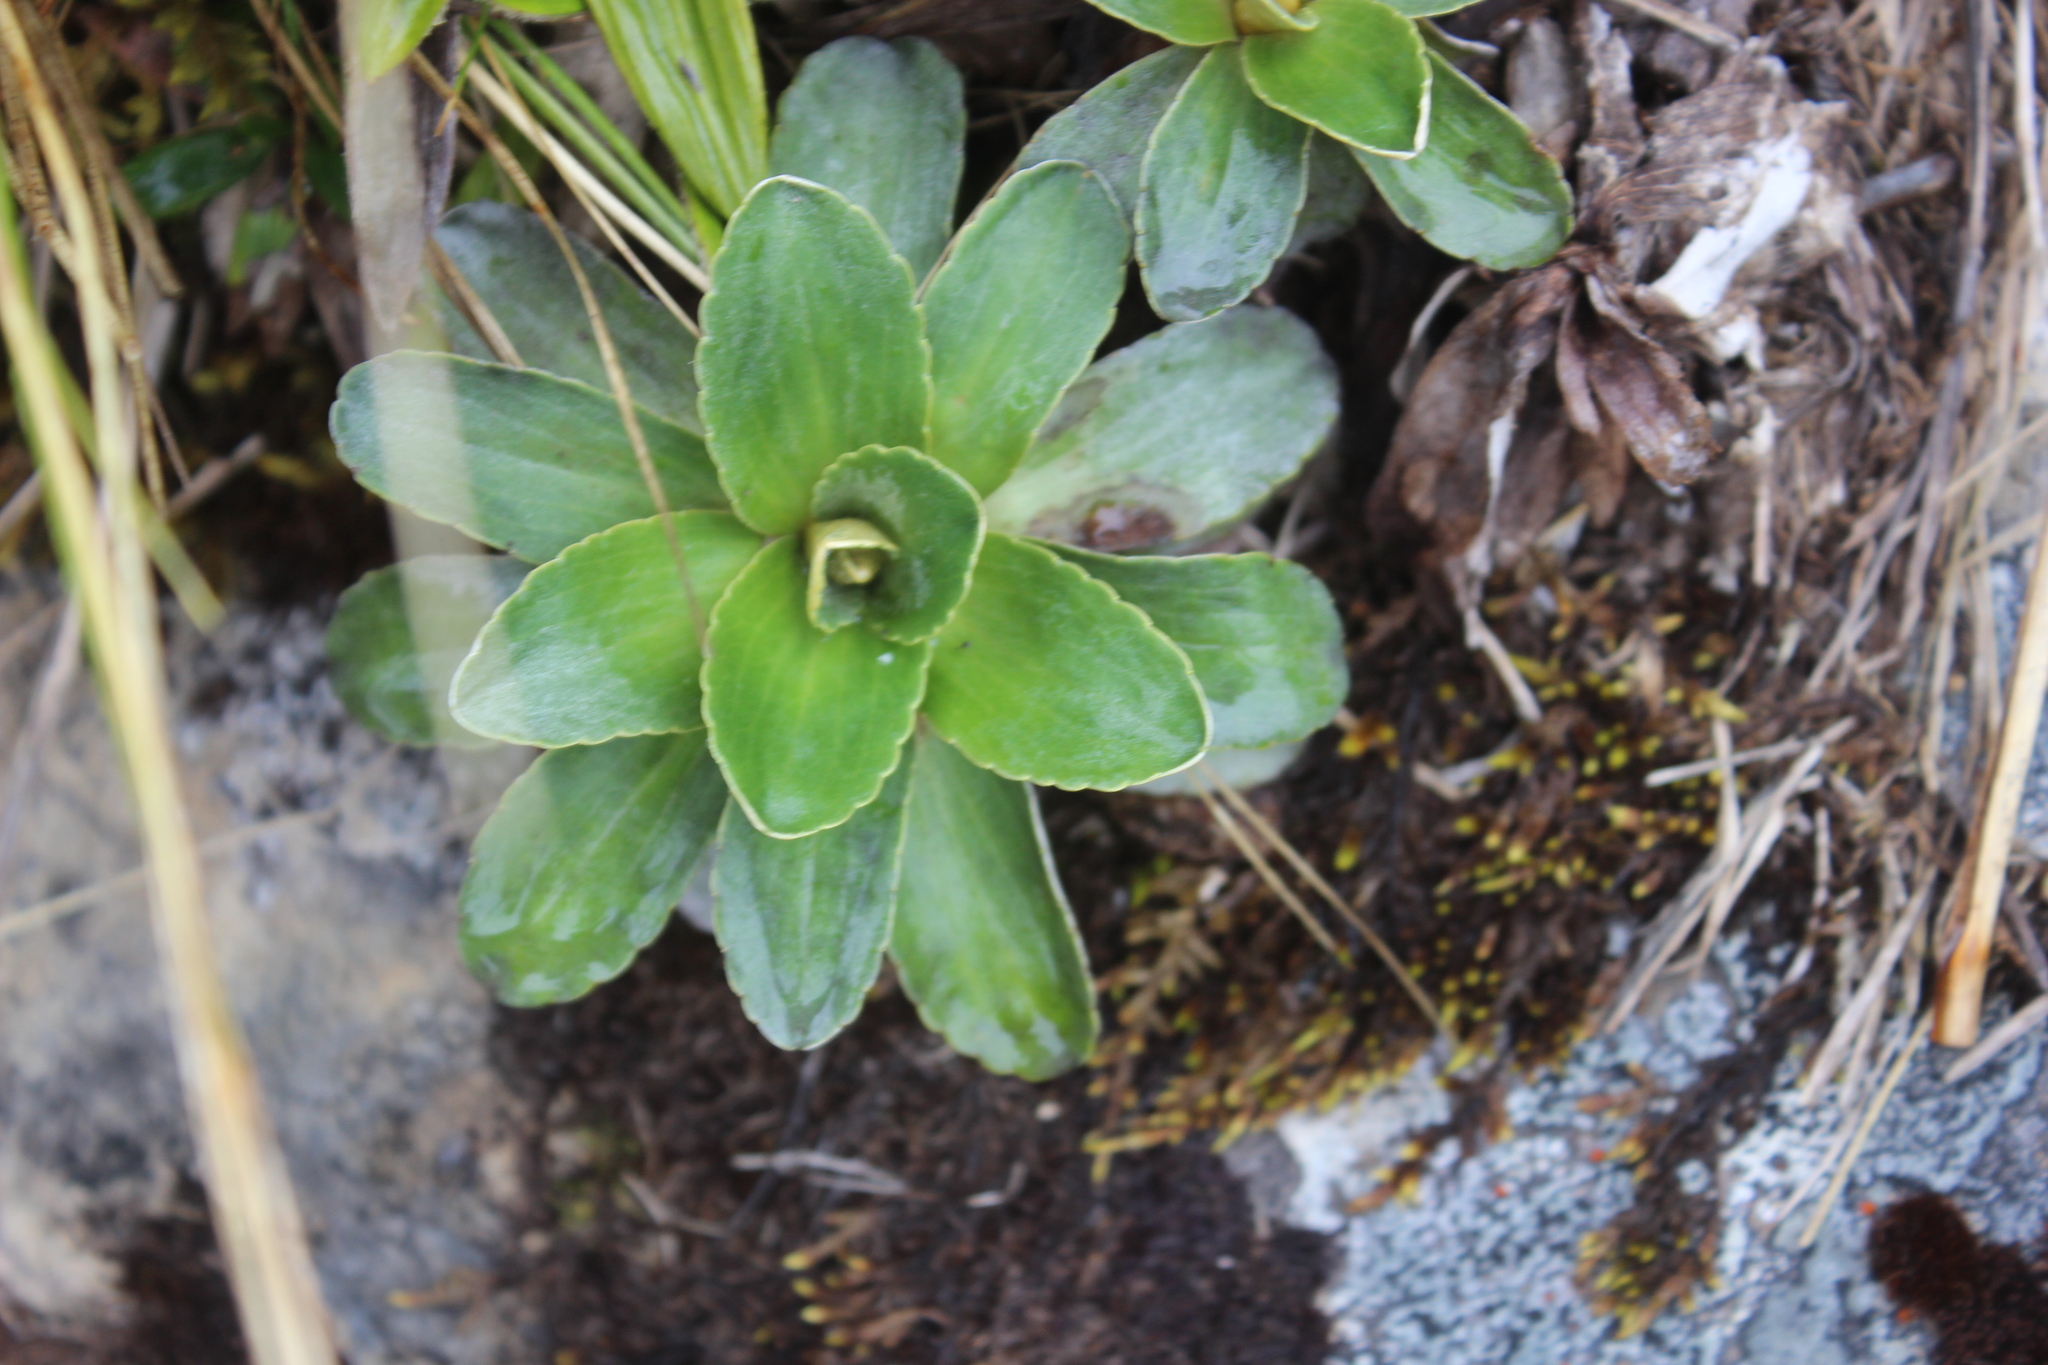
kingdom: Plantae
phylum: Tracheophyta
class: Magnoliopsida
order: Asterales
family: Asteraceae
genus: Celmisia
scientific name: Celmisia hieraciifolia
